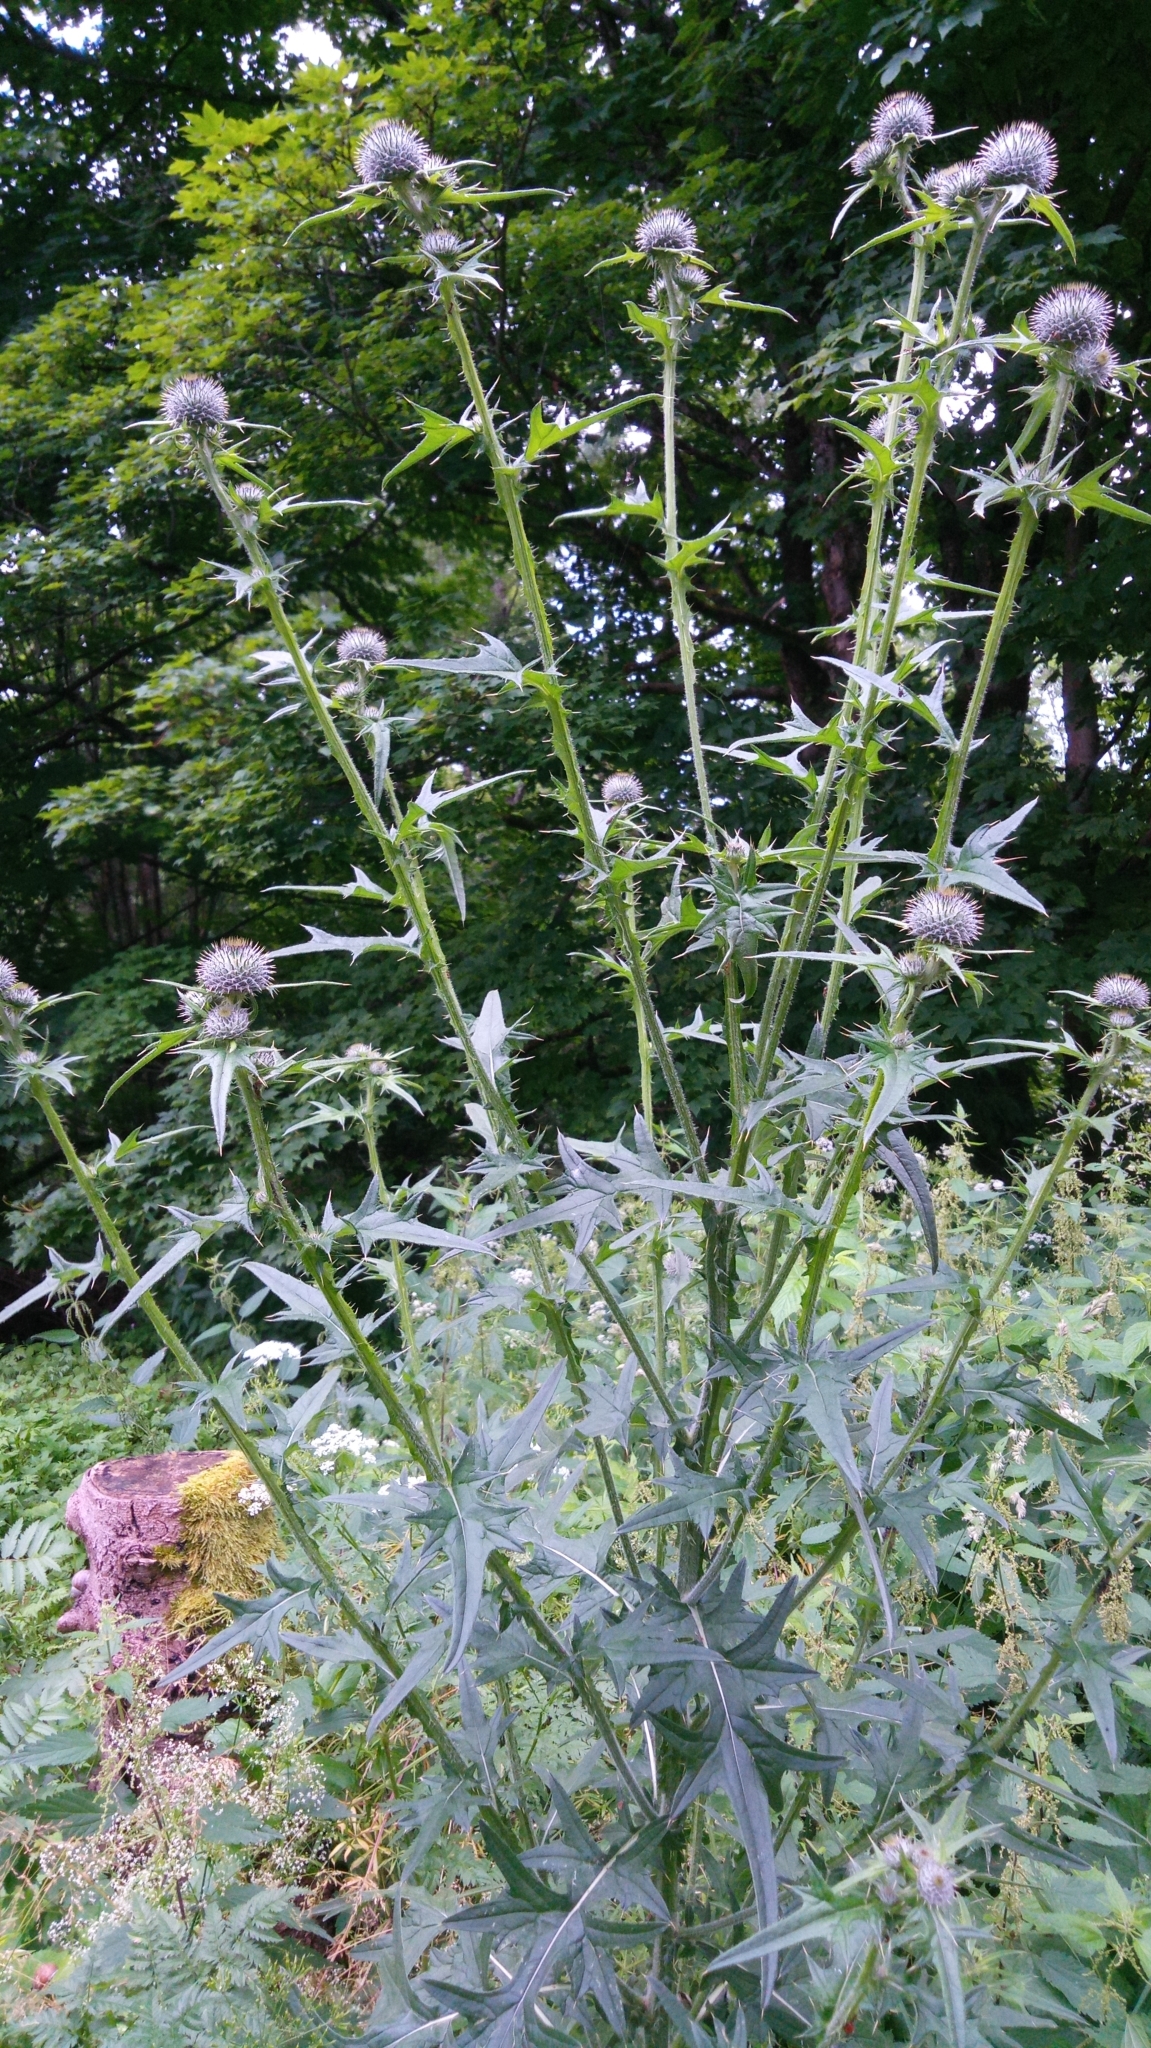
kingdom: Plantae
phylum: Tracheophyta
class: Magnoliopsida
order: Asterales
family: Asteraceae
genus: Cirsium
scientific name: Cirsium vulgare
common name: Bull thistle
